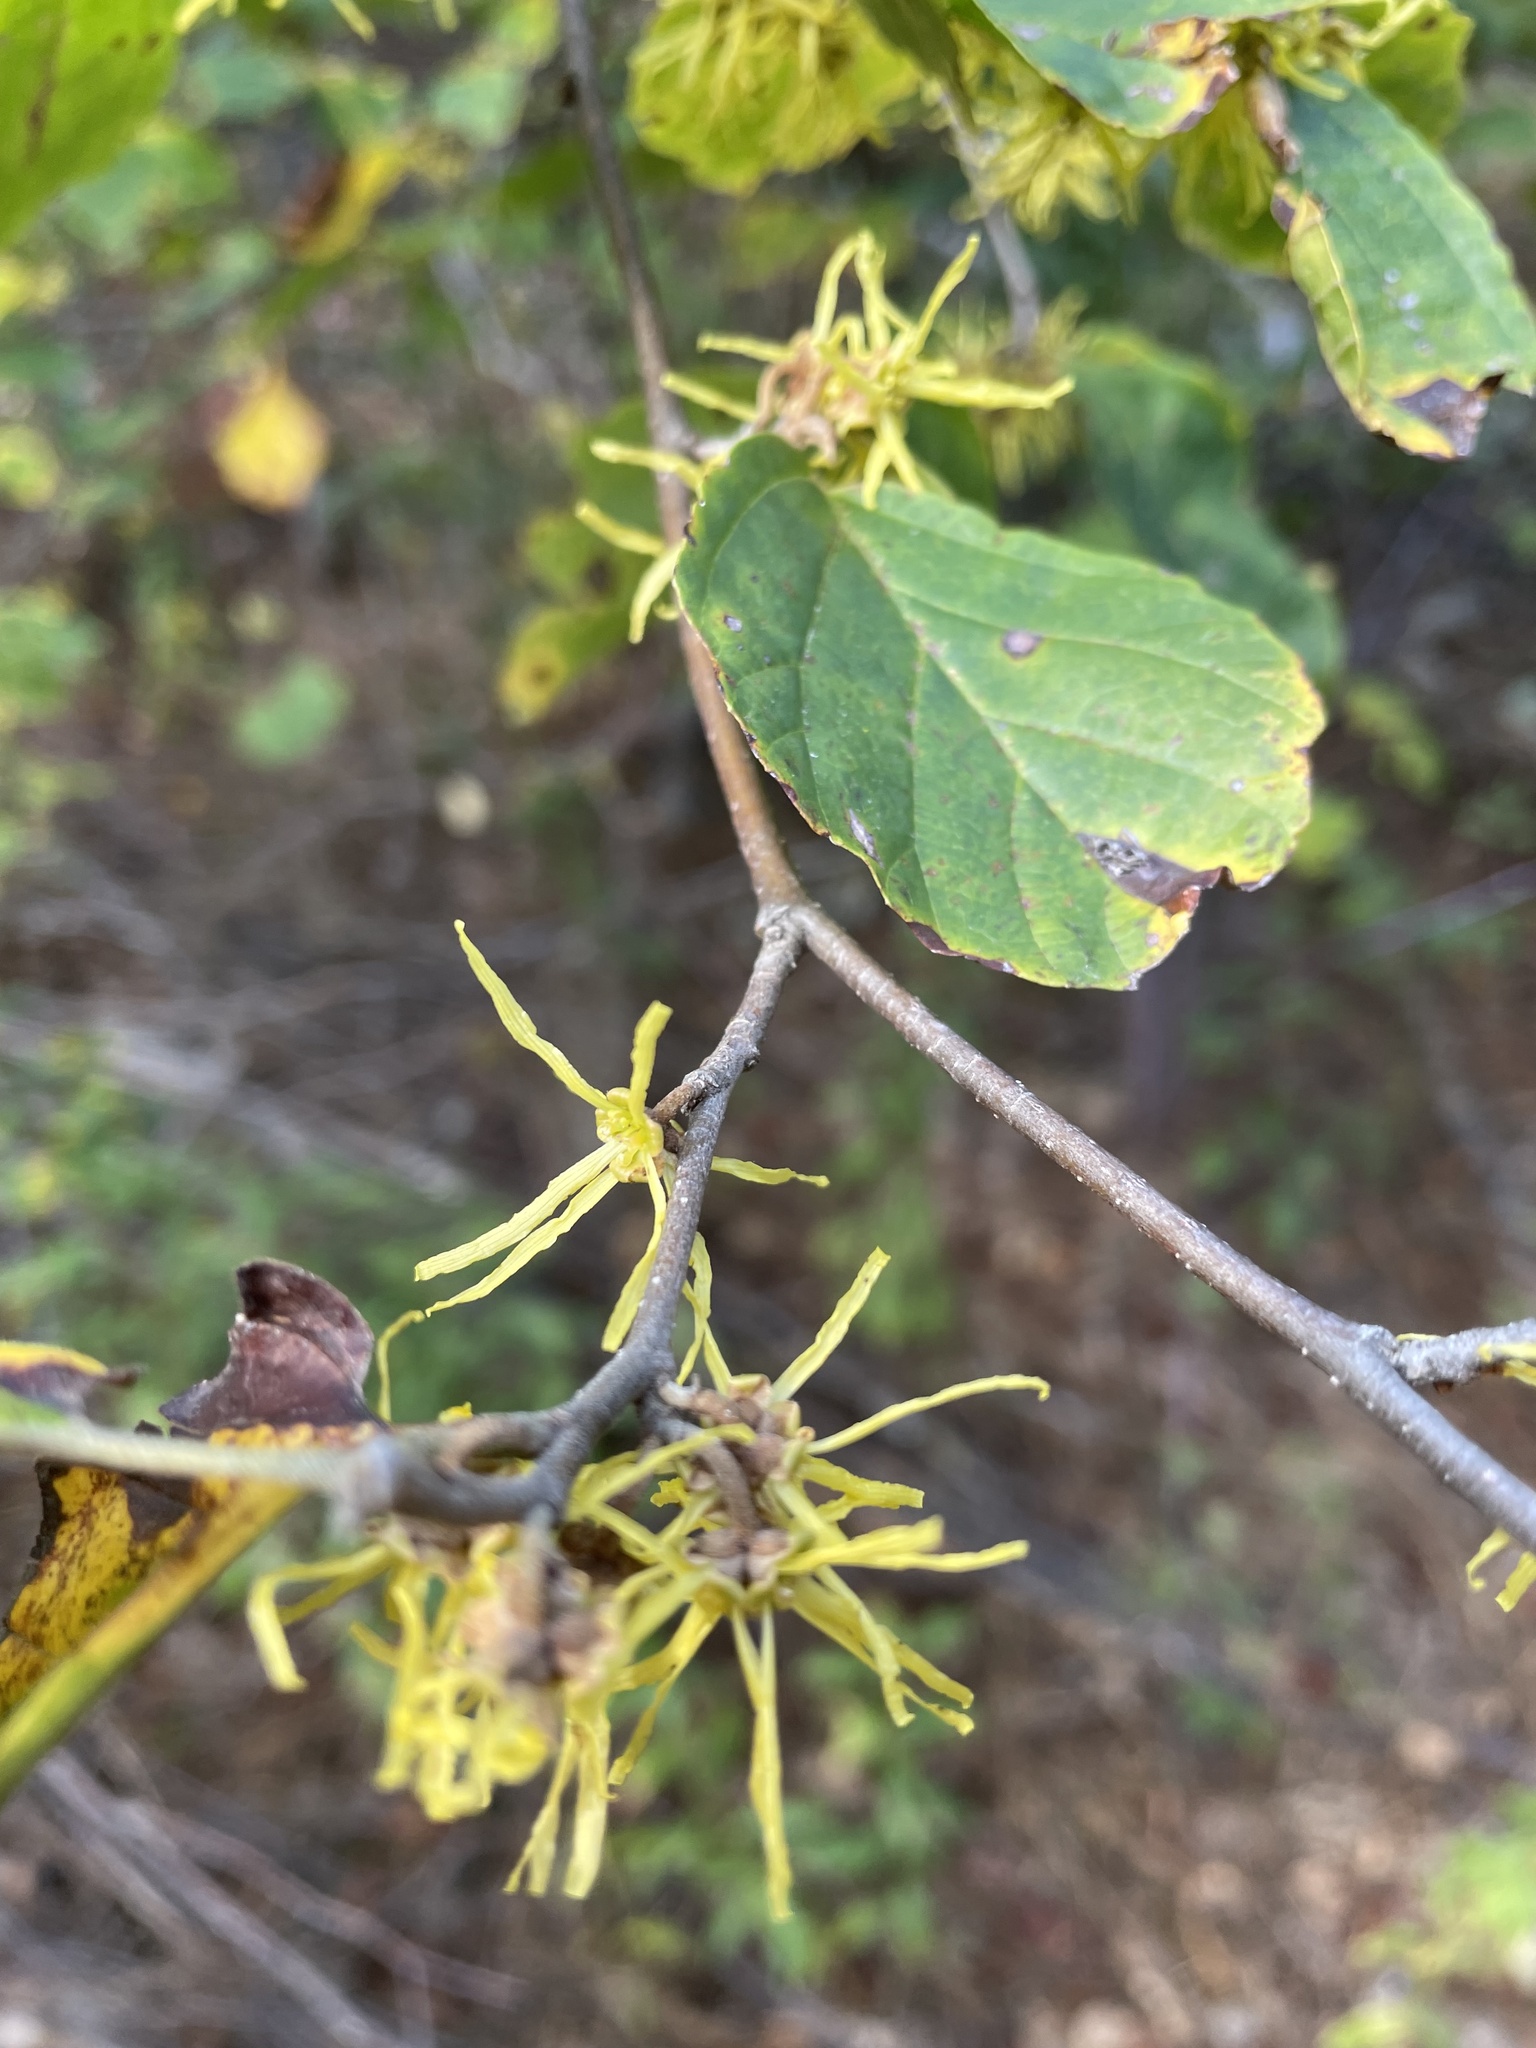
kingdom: Plantae
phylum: Tracheophyta
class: Magnoliopsida
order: Saxifragales
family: Hamamelidaceae
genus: Hamamelis
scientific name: Hamamelis virginiana
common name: Witch-hazel
